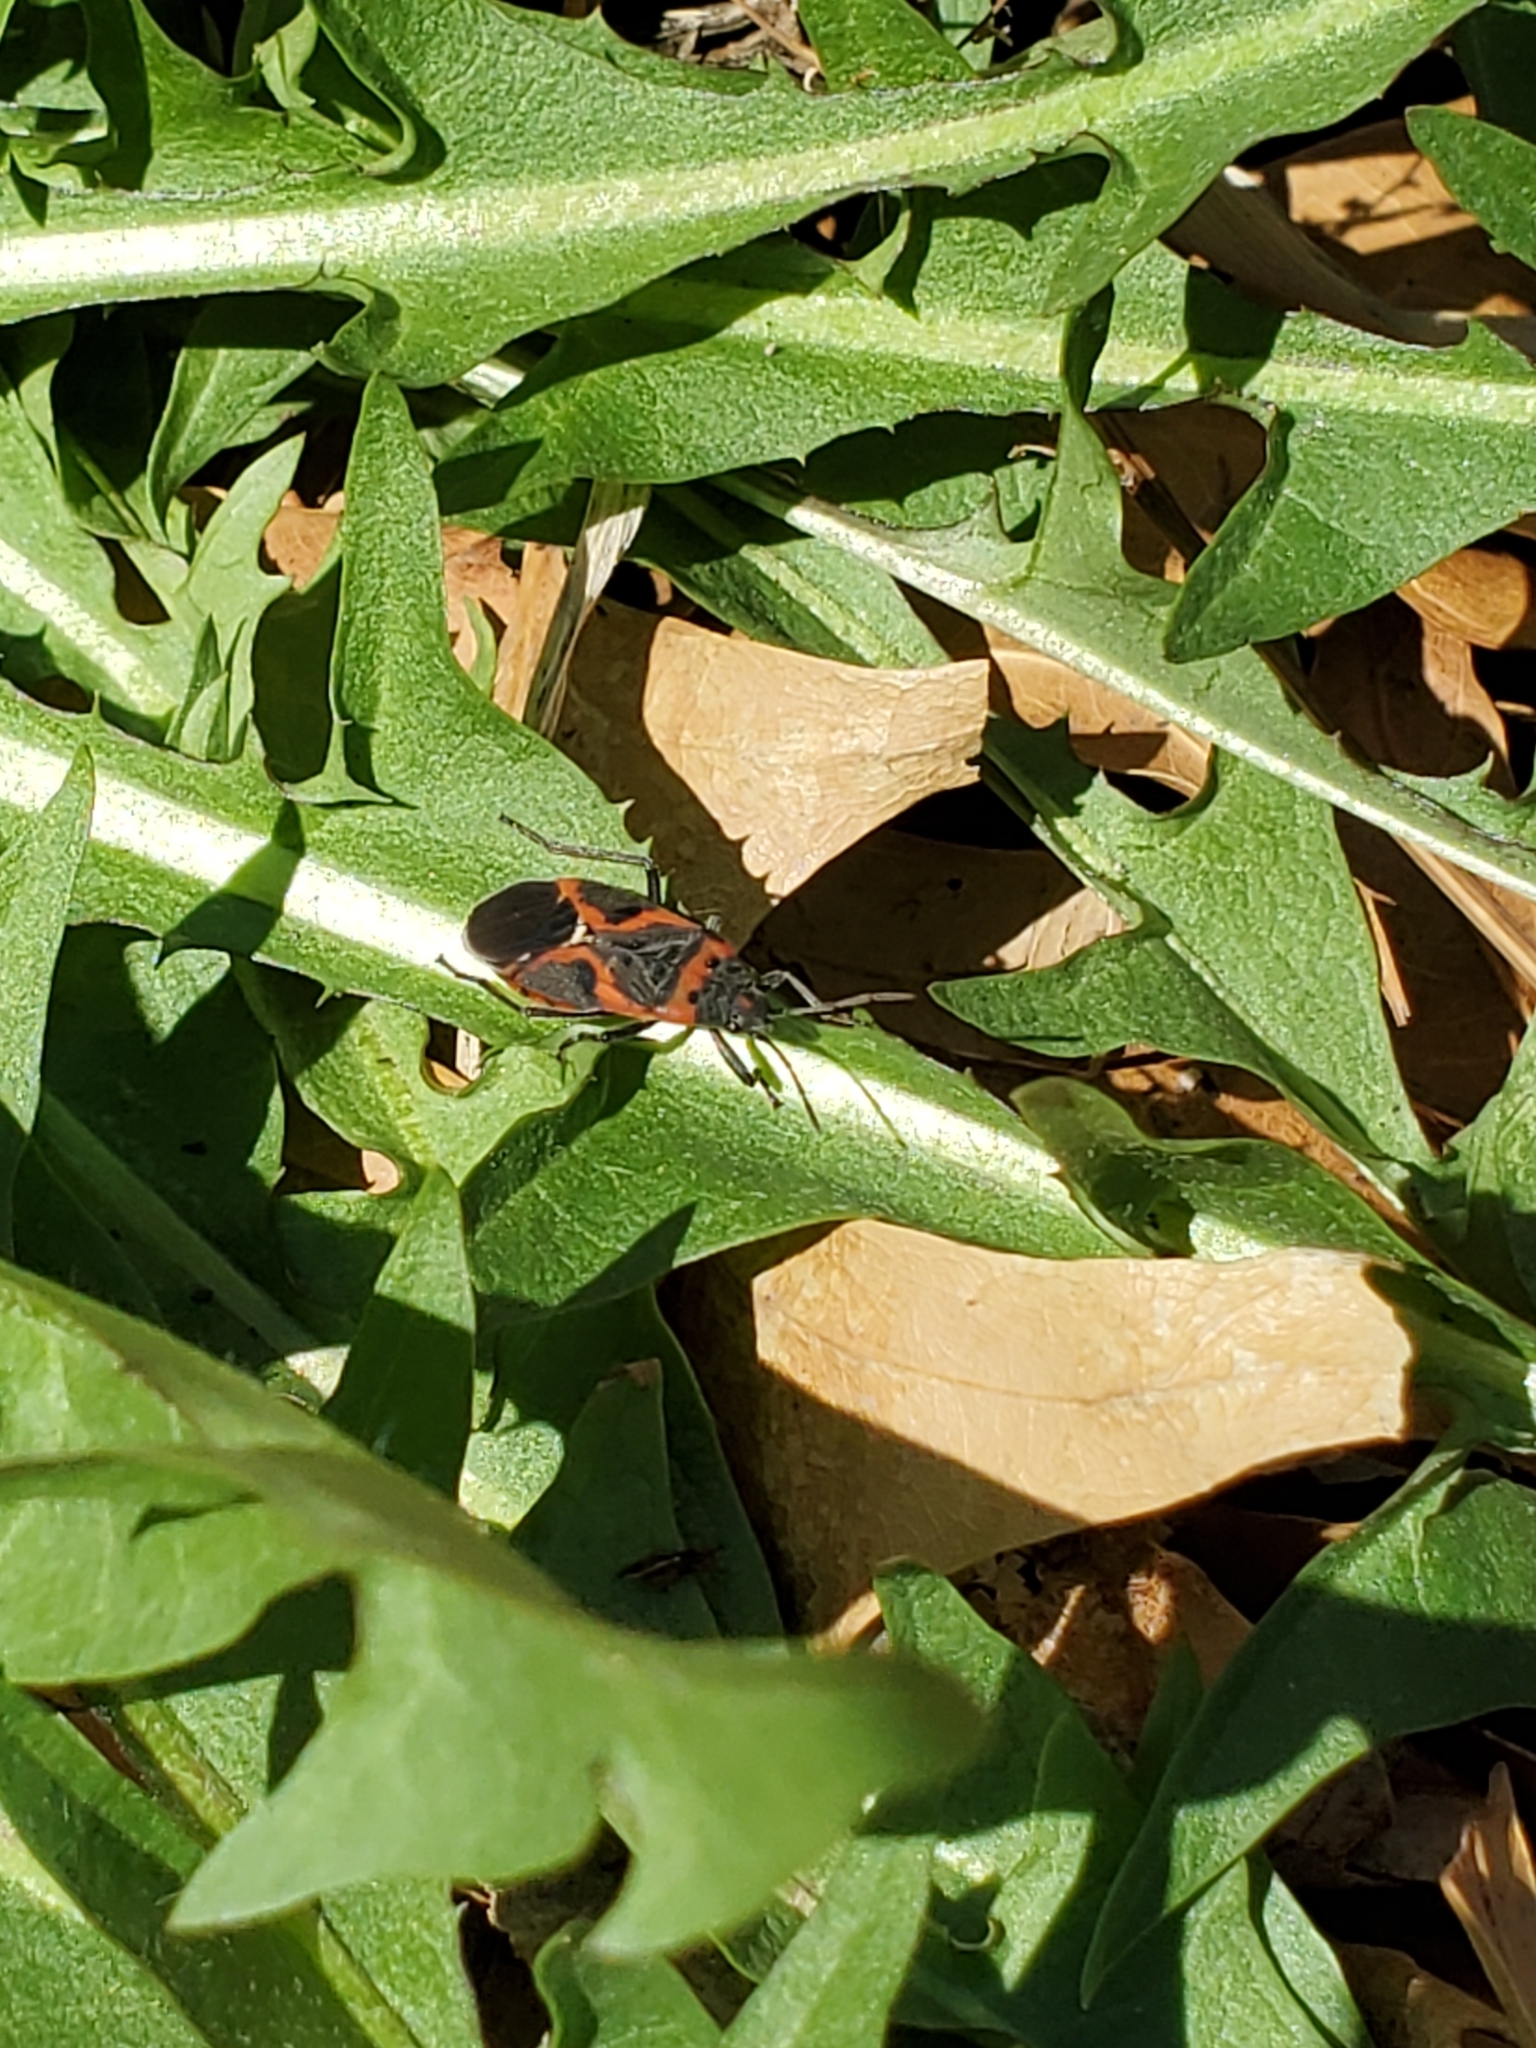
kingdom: Animalia
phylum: Arthropoda
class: Insecta
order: Hemiptera
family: Lygaeidae
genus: Lygaeus
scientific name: Lygaeus kalmii
